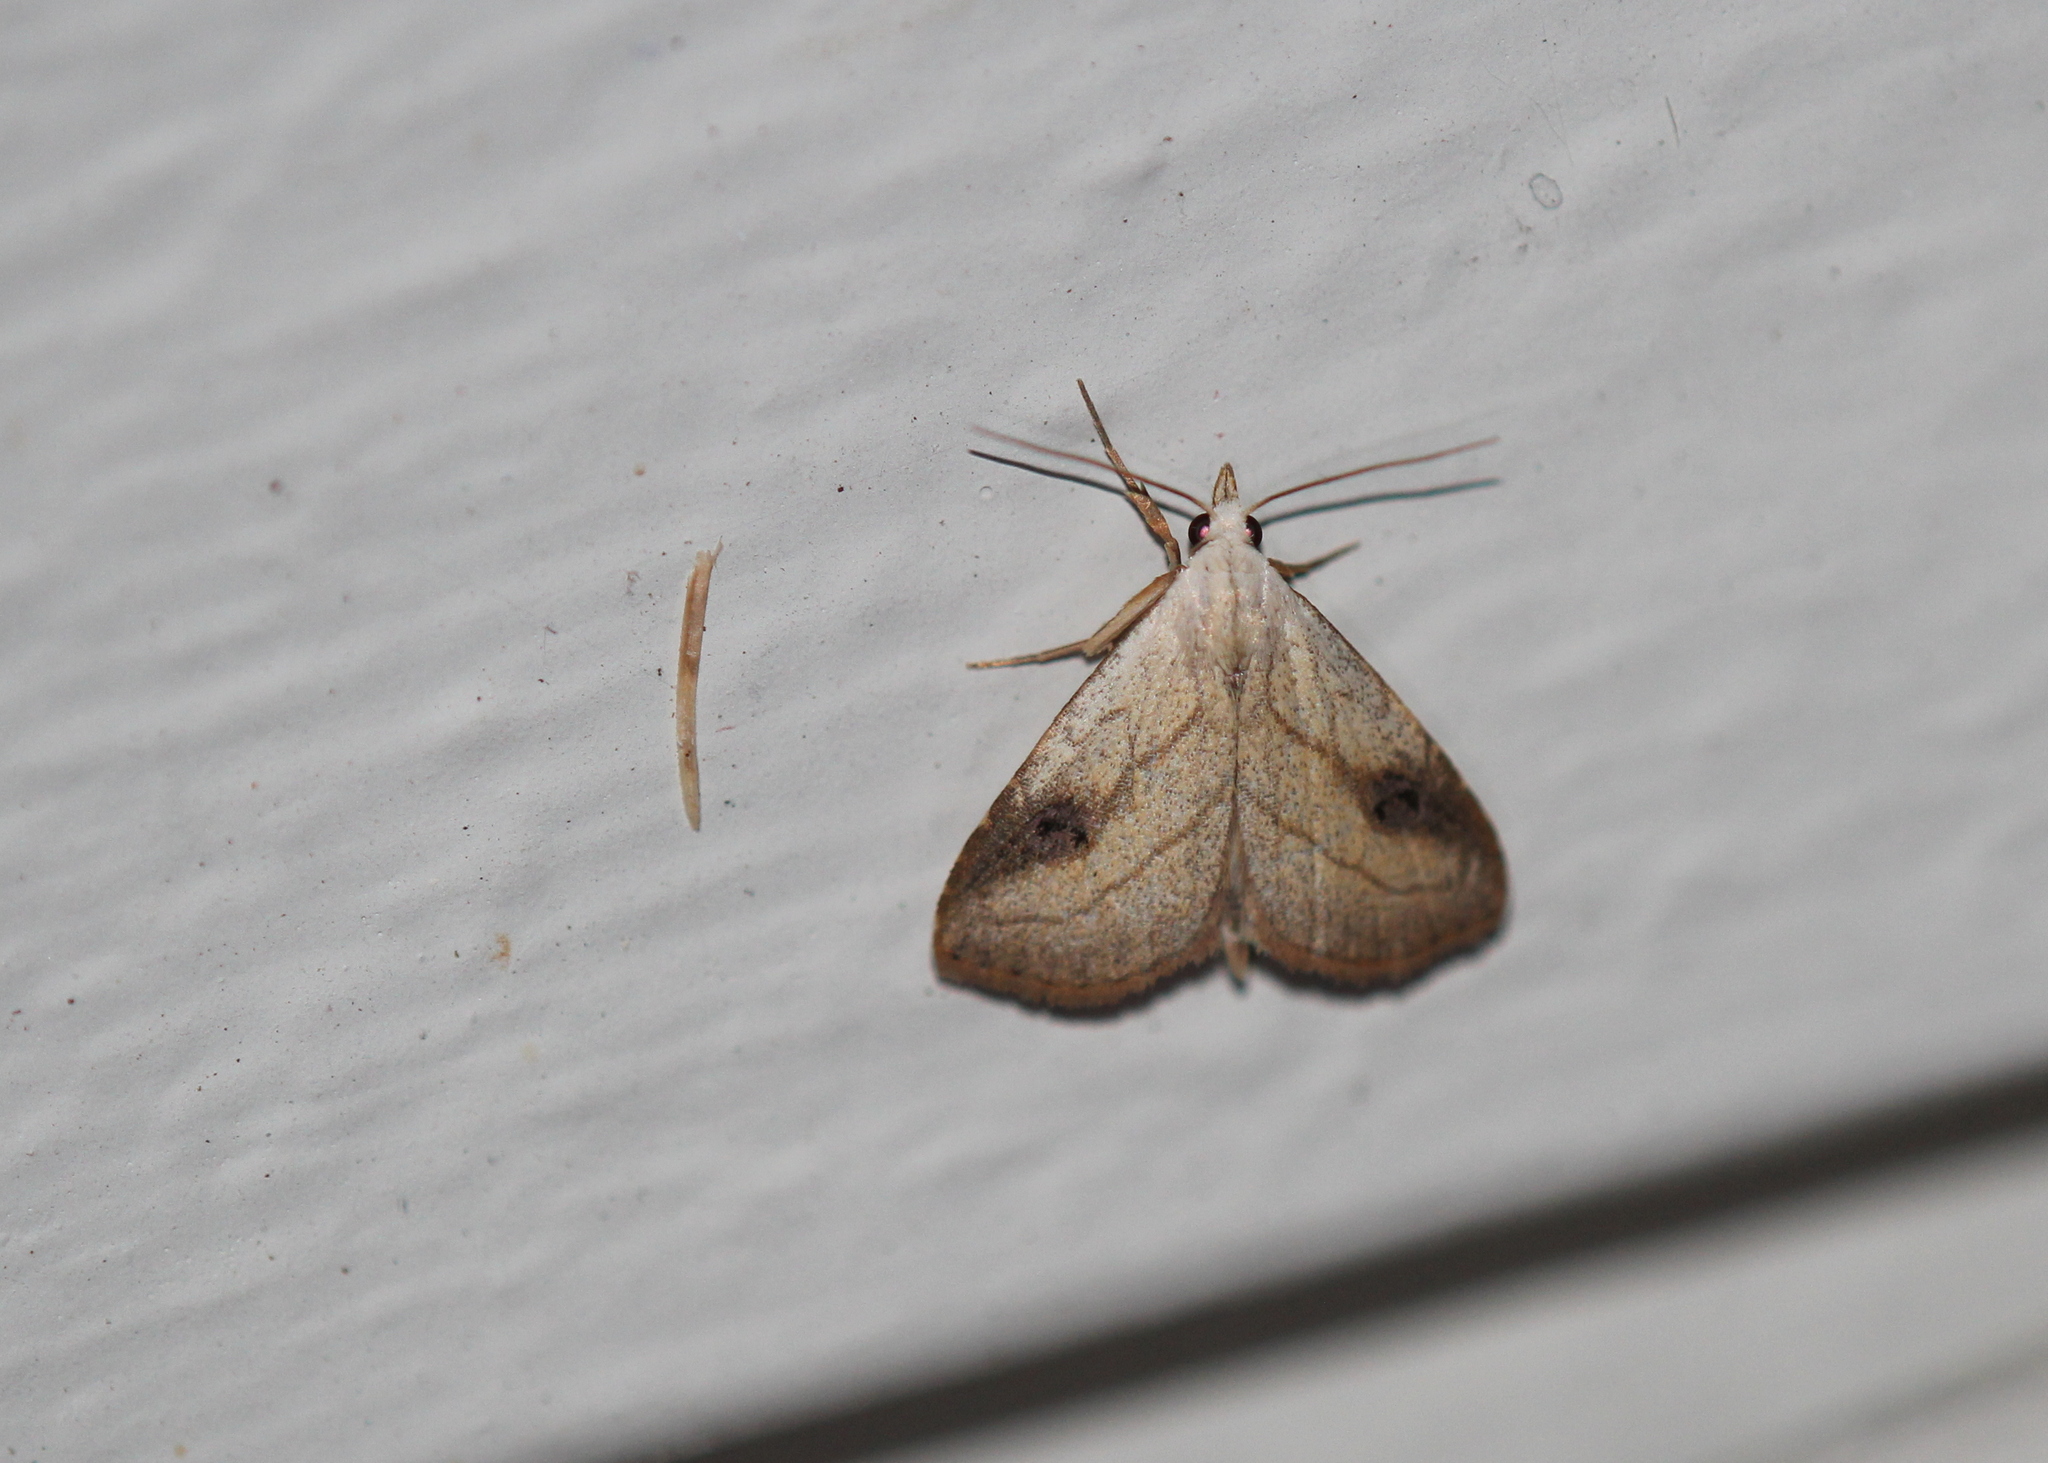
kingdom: Animalia
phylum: Arthropoda
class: Insecta
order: Lepidoptera
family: Erebidae
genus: Rivula
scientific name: Rivula propinqualis
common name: Spotted grass moth
